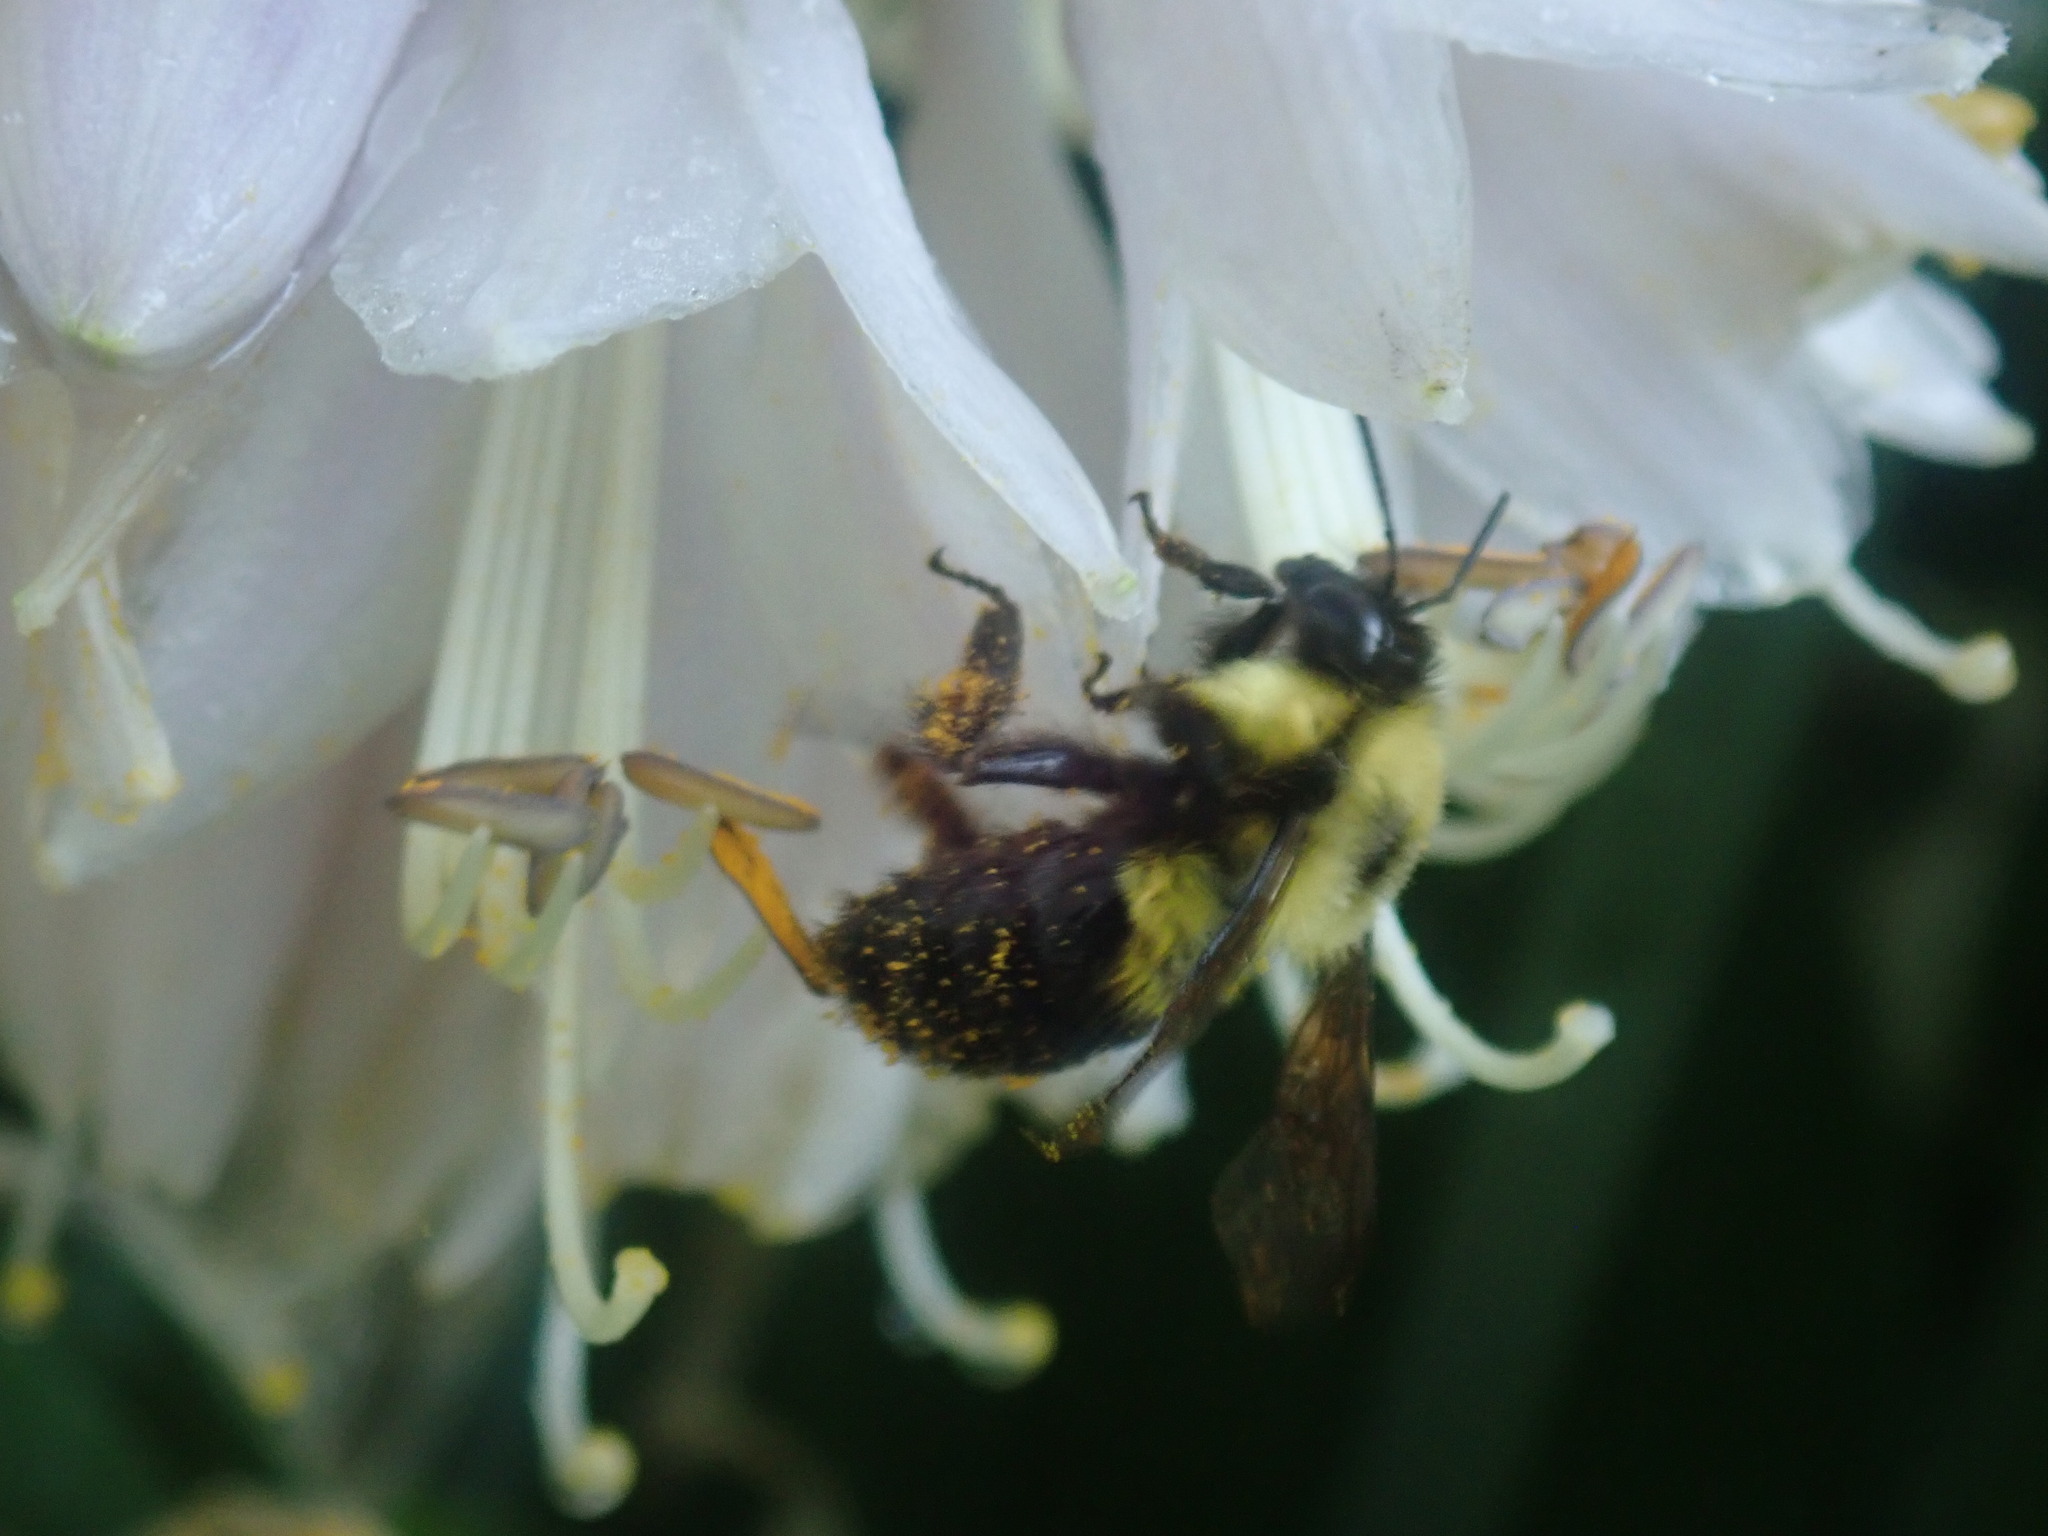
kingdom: Animalia
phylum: Arthropoda
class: Insecta
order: Hymenoptera
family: Apidae
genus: Bombus
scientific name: Bombus bimaculatus
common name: Two-spotted bumble bee
